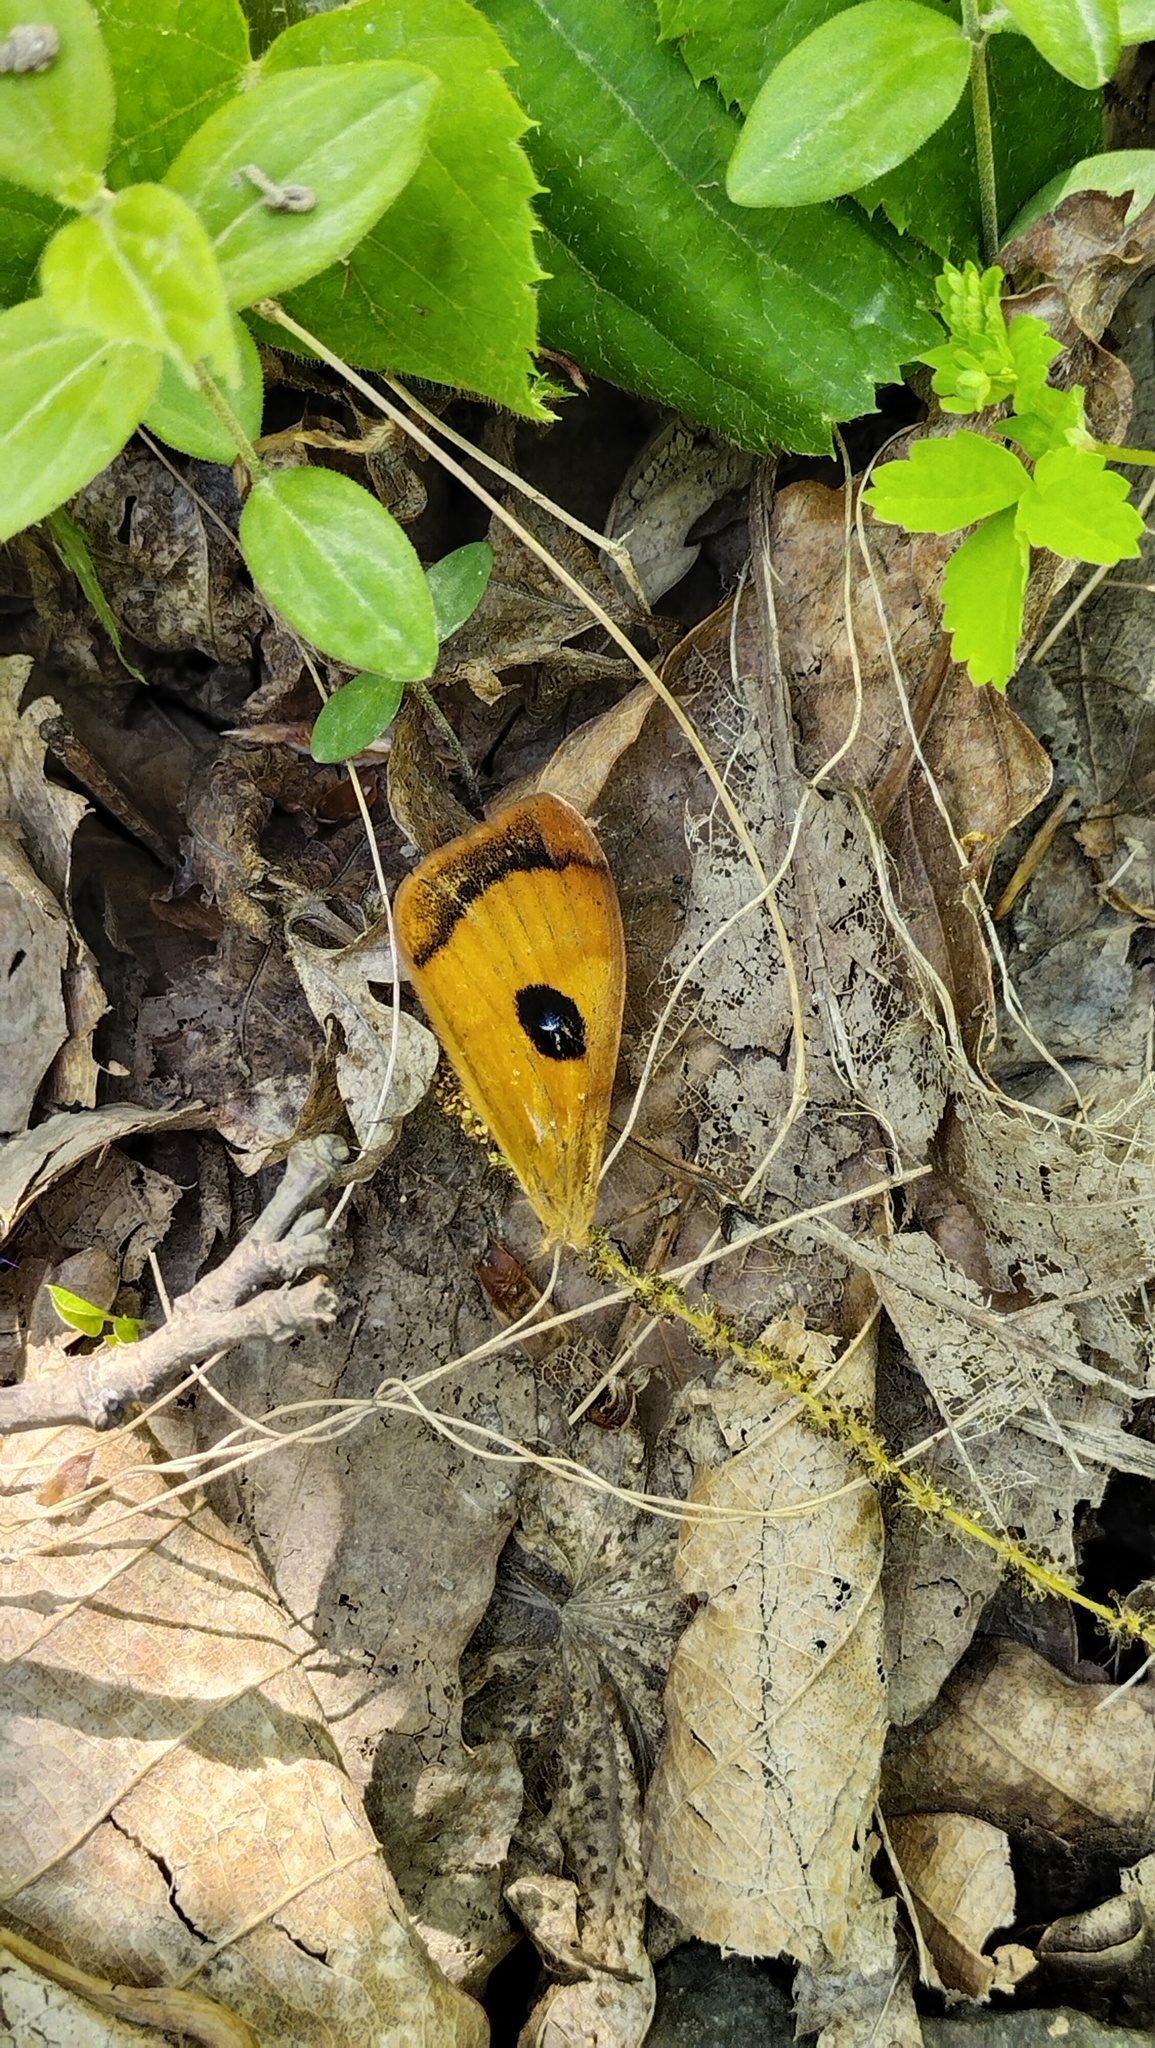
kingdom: Animalia
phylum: Arthropoda
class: Insecta
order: Lepidoptera
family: Saturniidae
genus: Aglia
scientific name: Aglia tau
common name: Tau emperor
